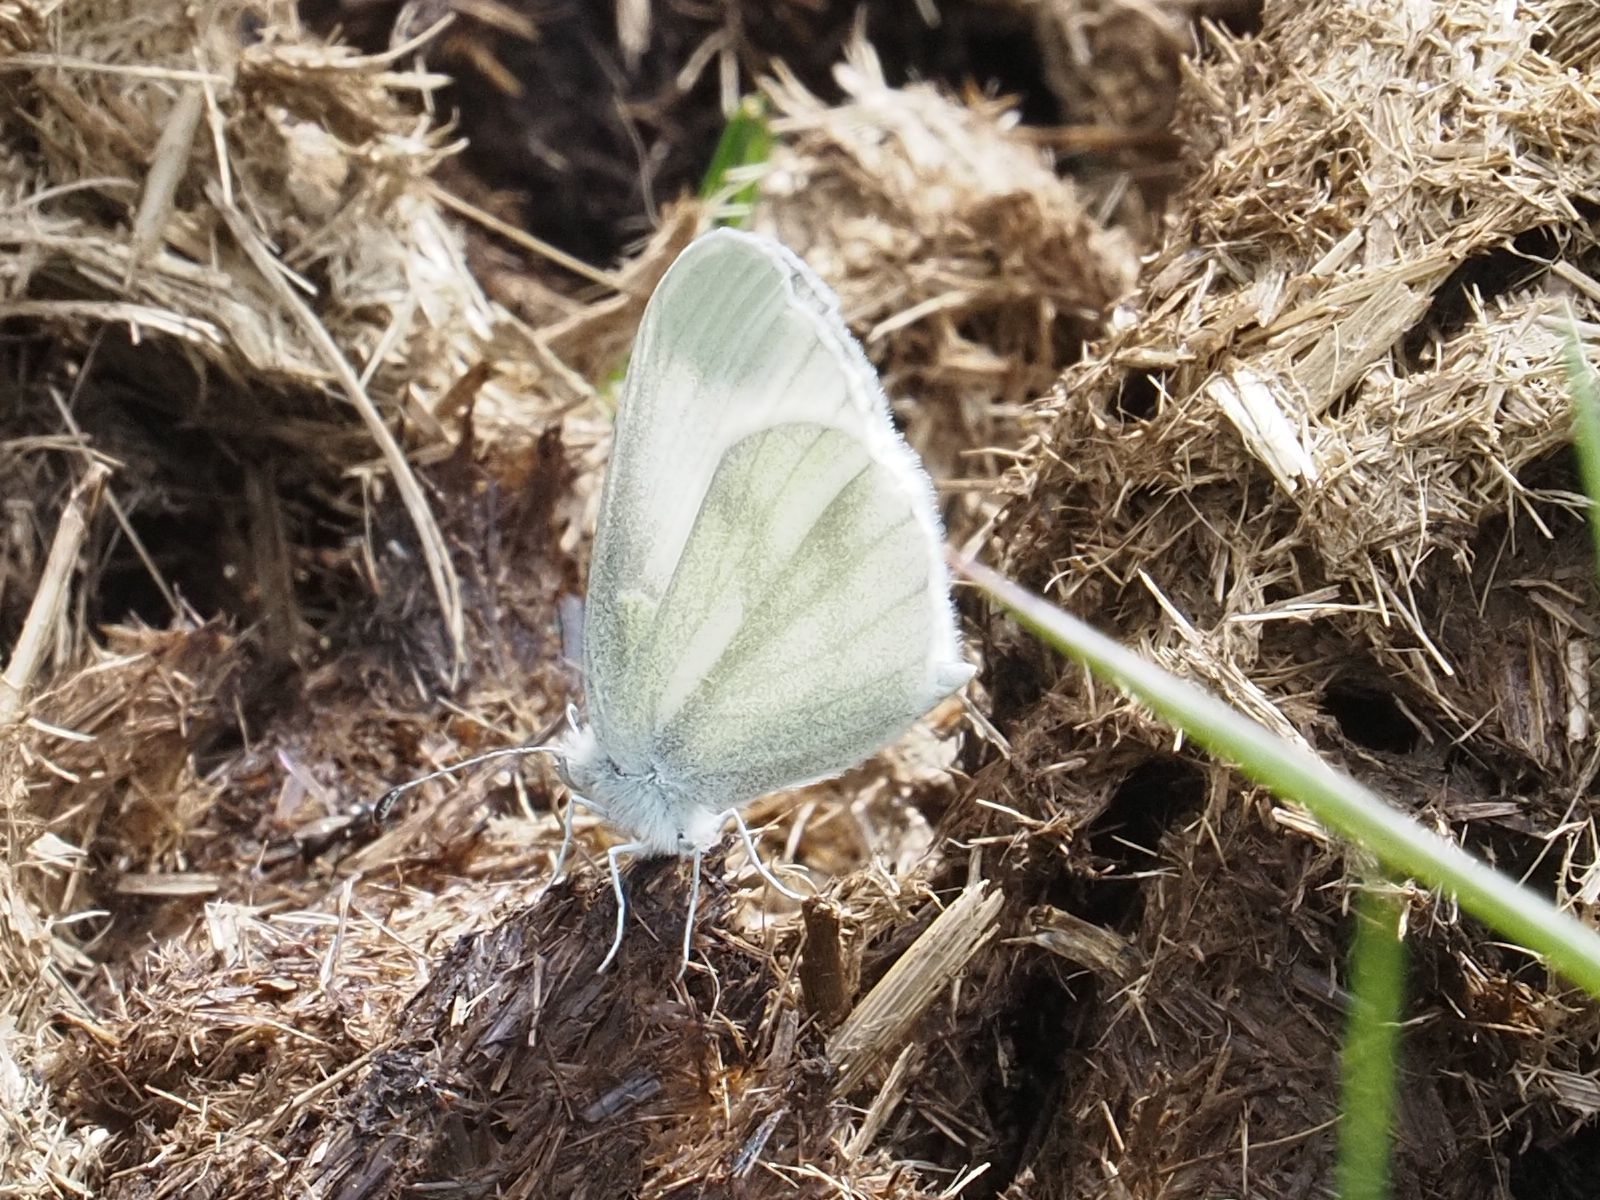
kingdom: Animalia
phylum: Arthropoda
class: Insecta
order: Lepidoptera
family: Pieridae
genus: Leptidea
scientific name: Leptidea
